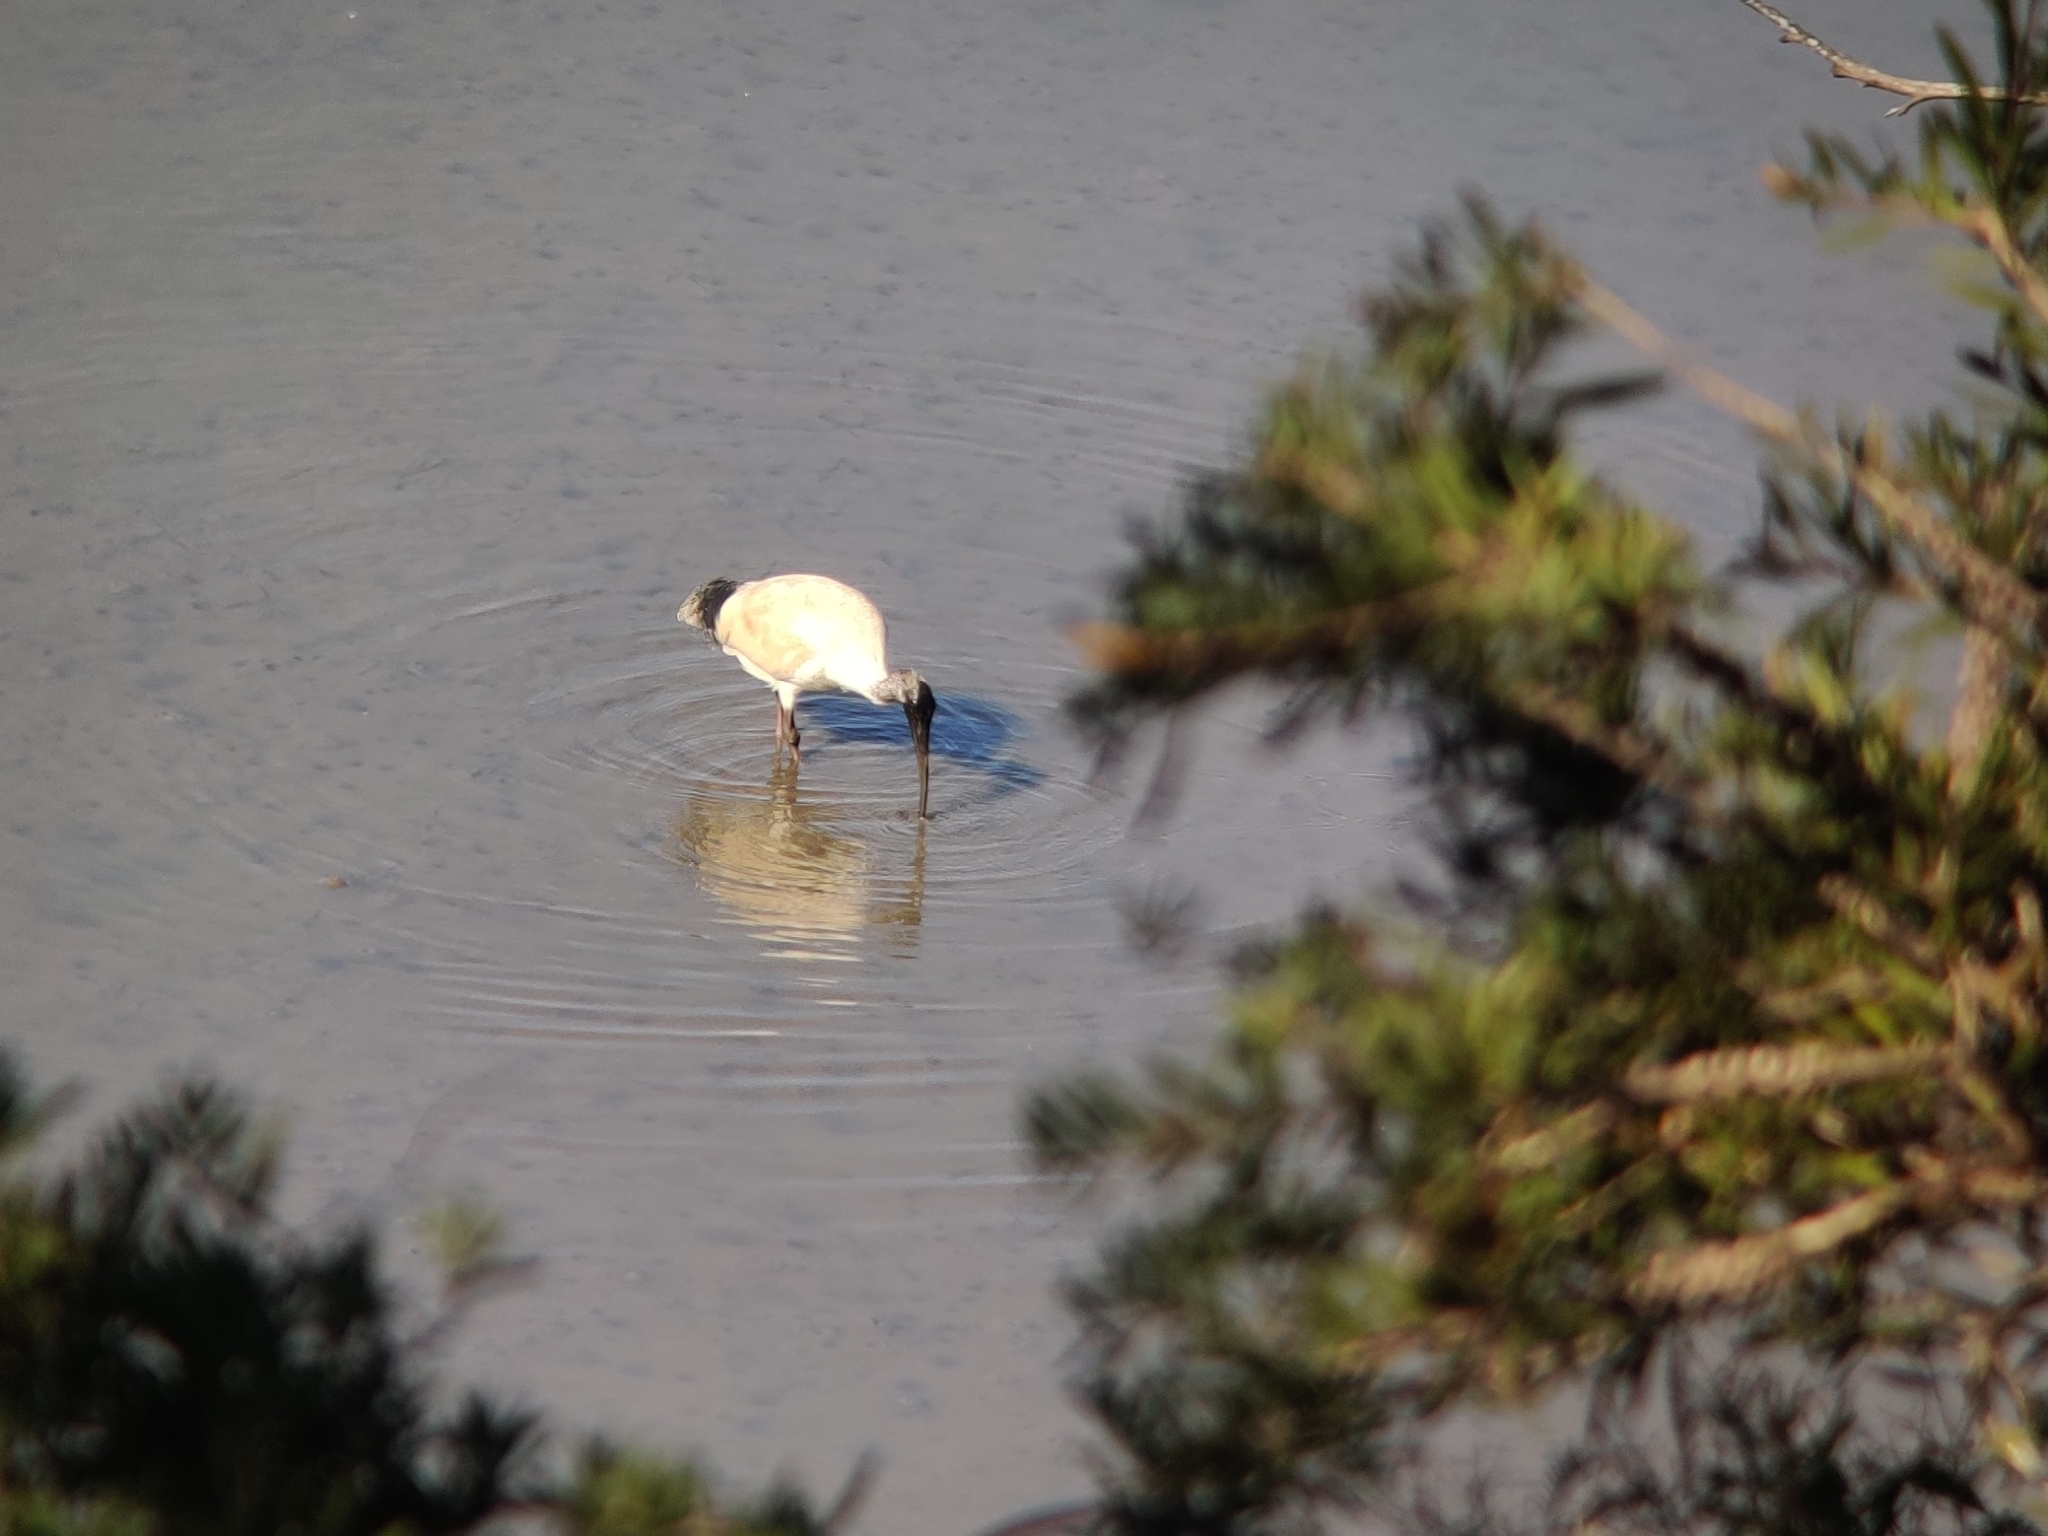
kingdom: Animalia
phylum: Chordata
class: Aves
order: Pelecaniformes
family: Threskiornithidae
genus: Threskiornis
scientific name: Threskiornis molucca
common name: Australian white ibis
